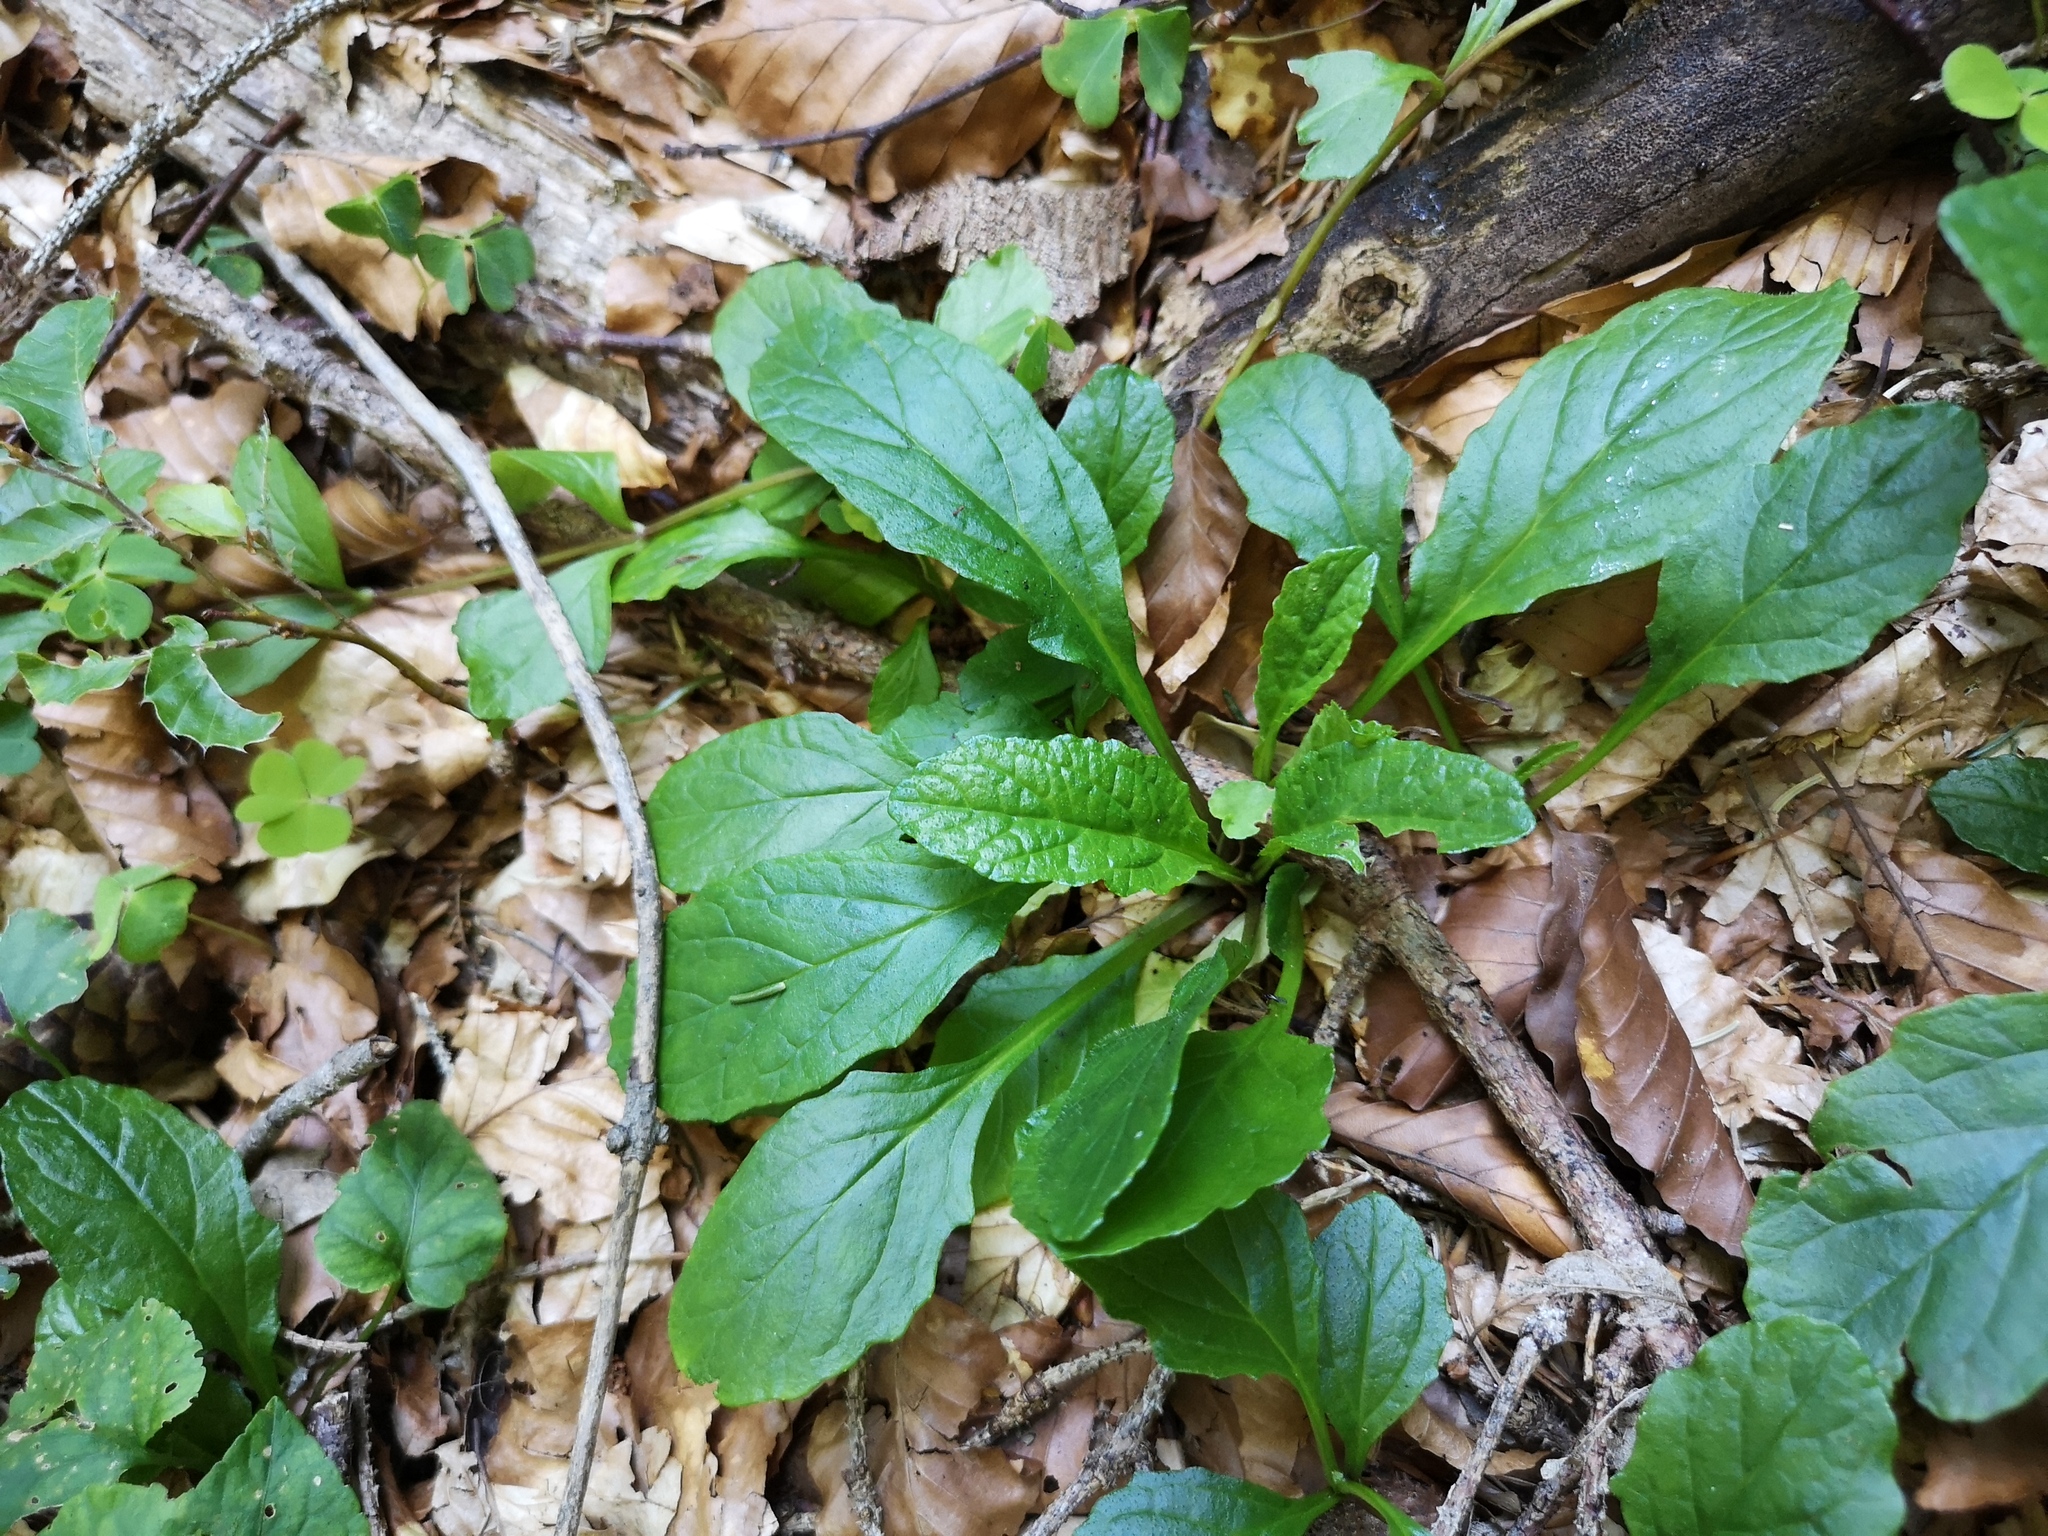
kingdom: Plantae
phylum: Tracheophyta
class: Magnoliopsida
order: Lamiales
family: Lamiaceae
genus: Ajuga
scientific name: Ajuga reptans
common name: Bugle
